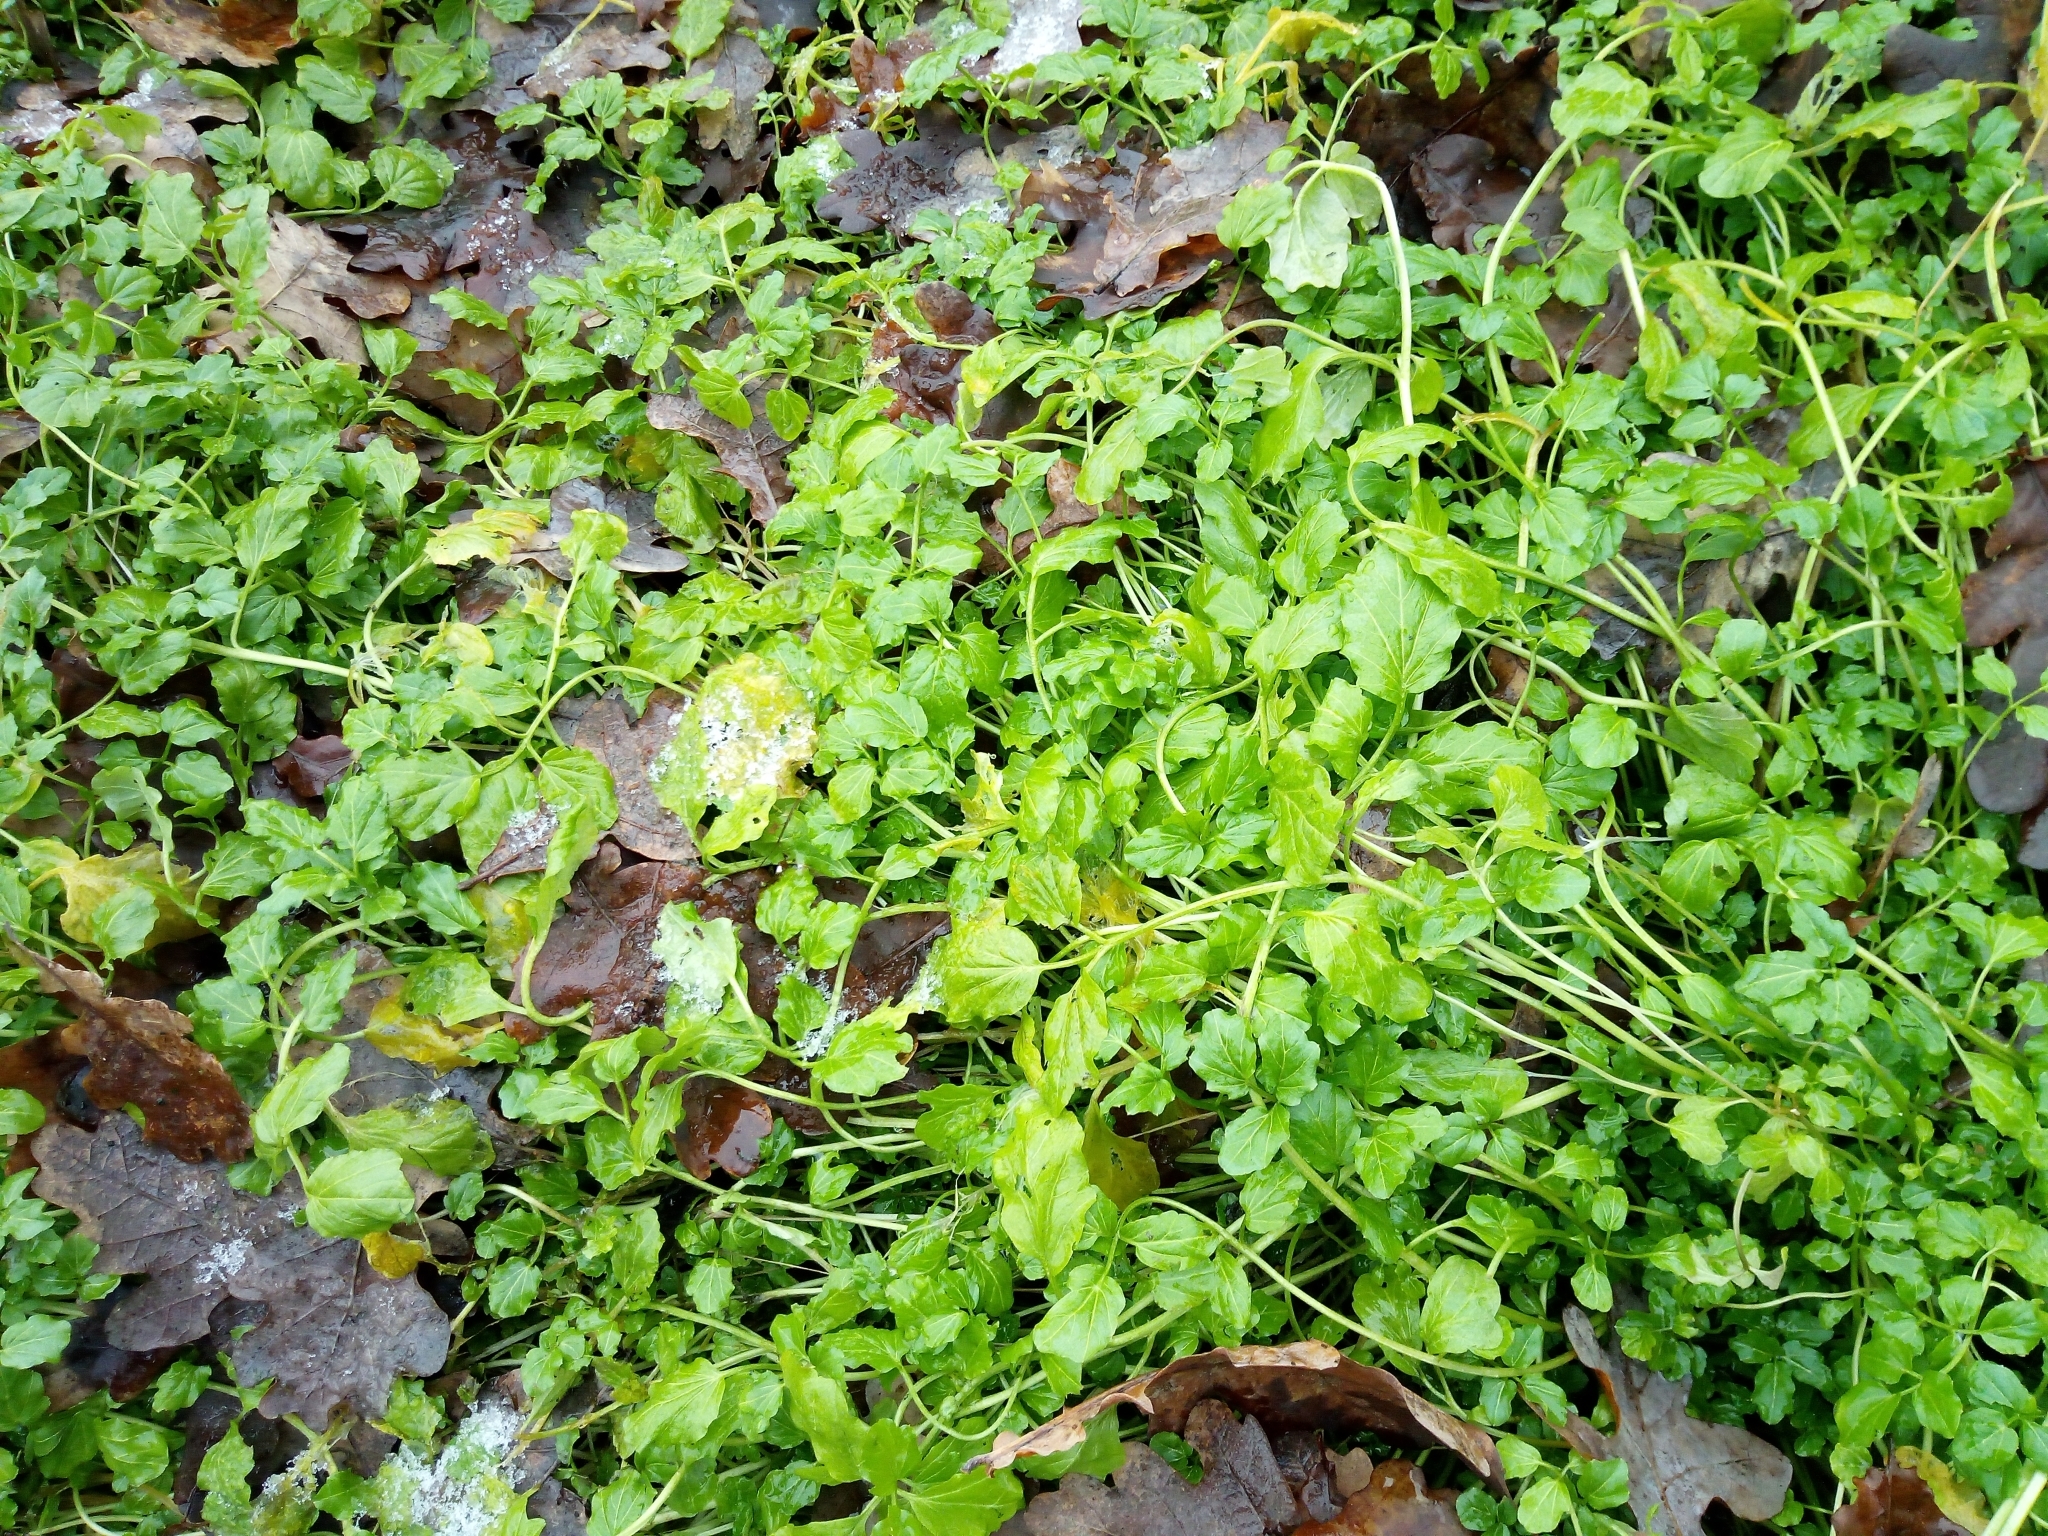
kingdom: Plantae
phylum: Tracheophyta
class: Magnoliopsida
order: Brassicales
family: Brassicaceae
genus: Cardamine
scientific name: Cardamine amara
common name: Large bitter-cress
